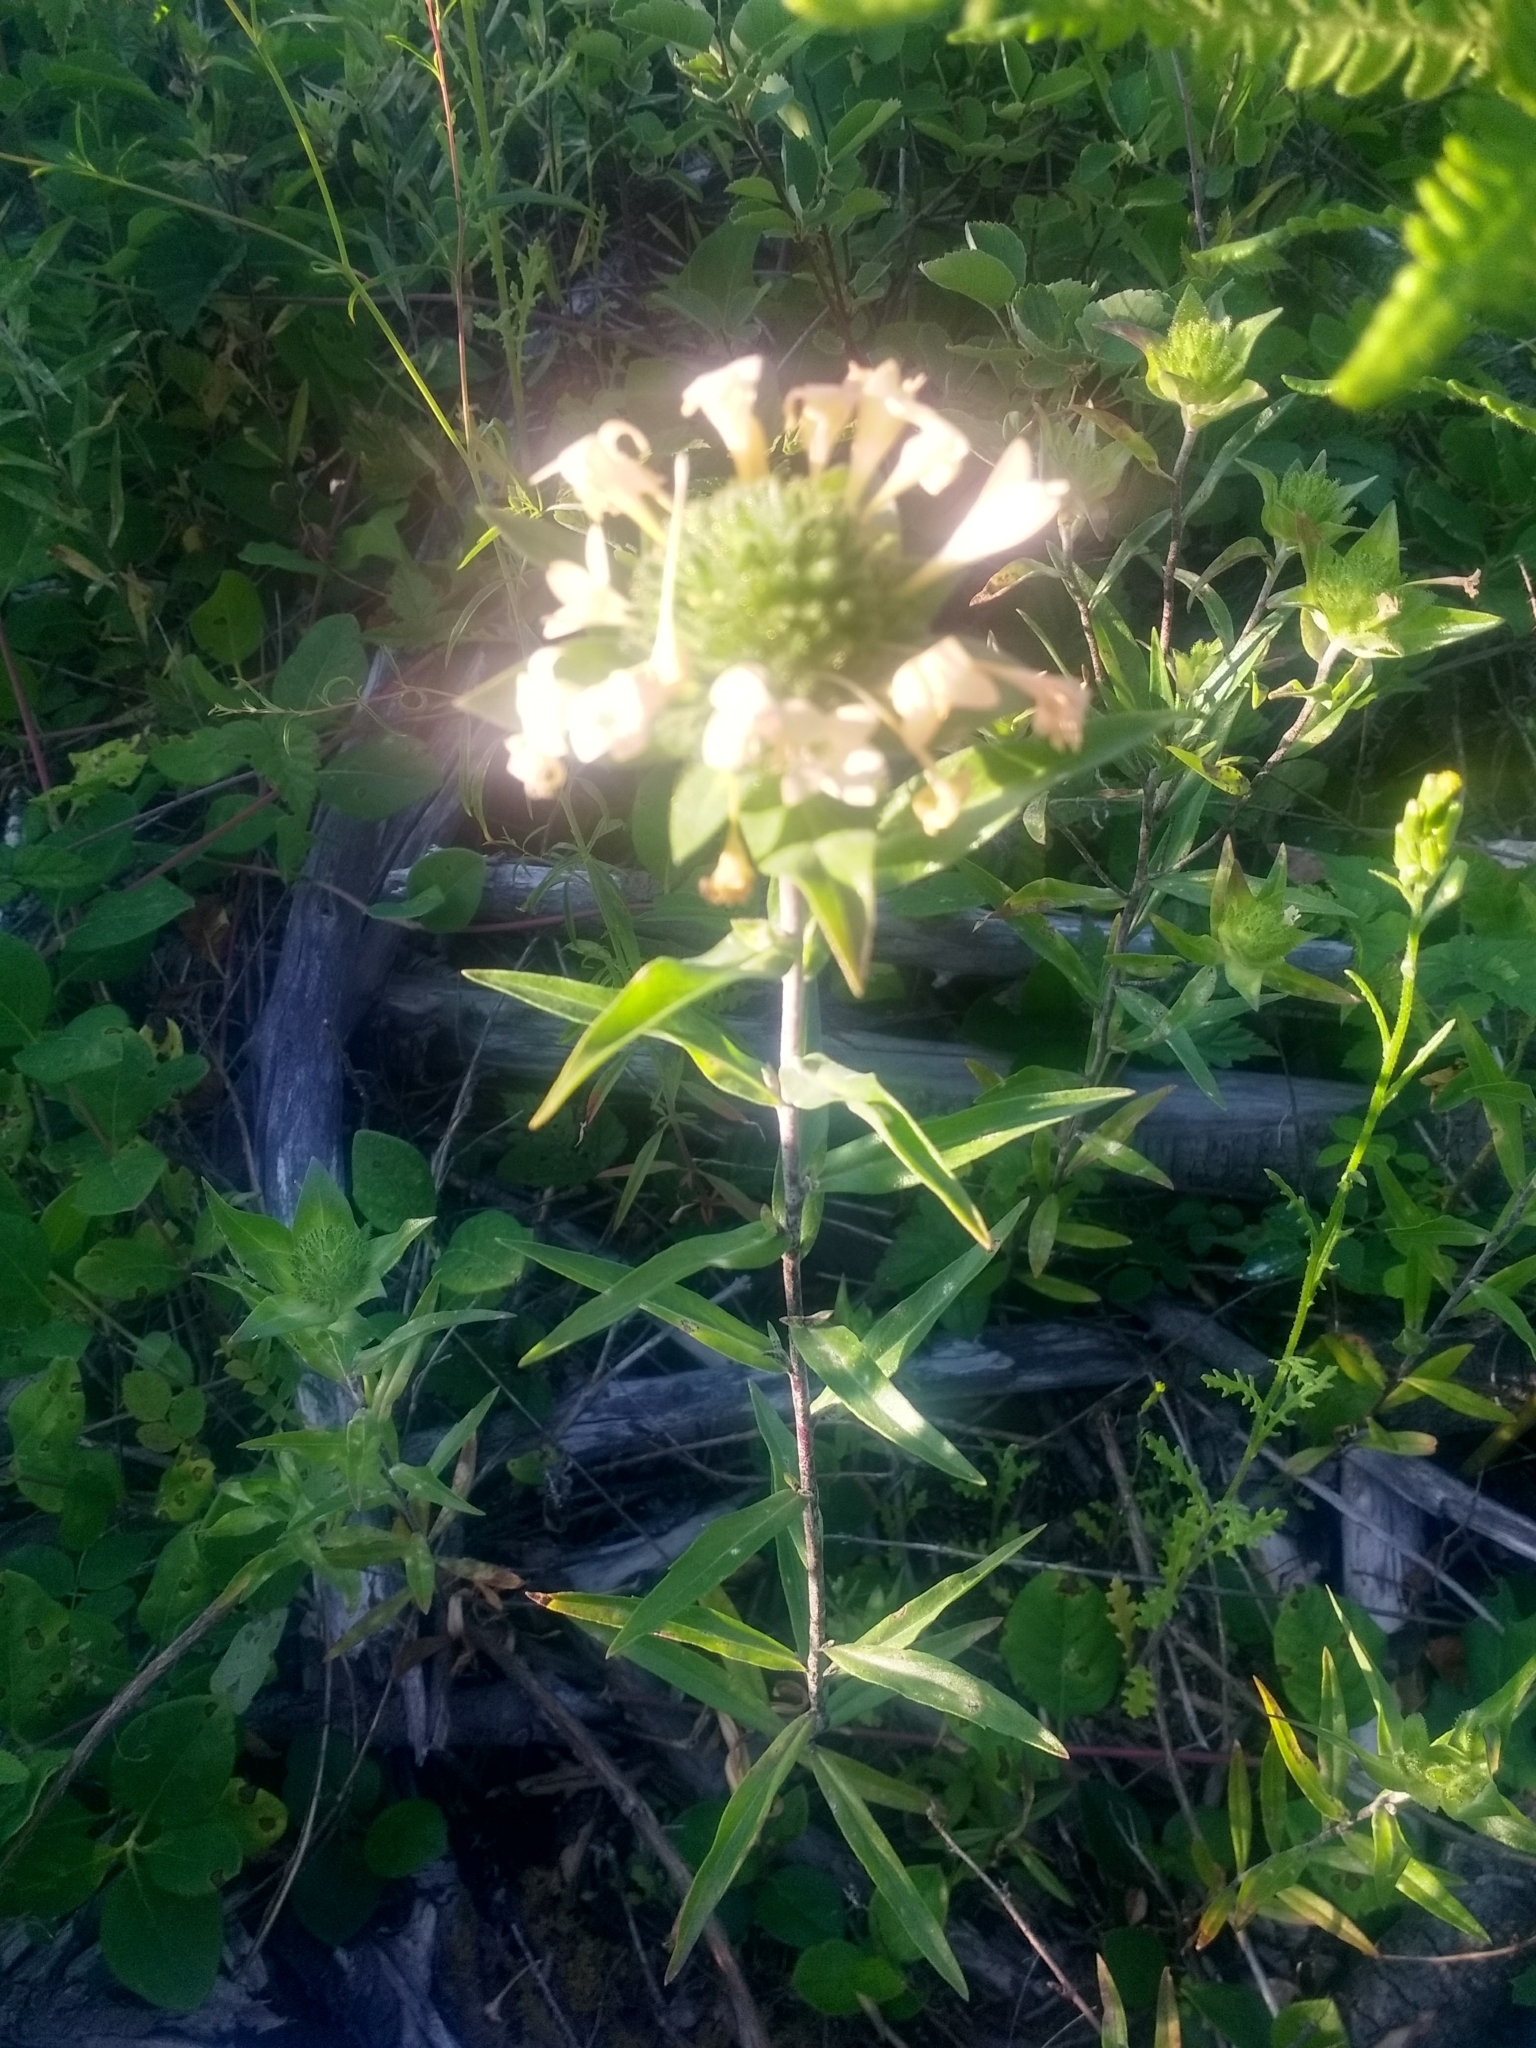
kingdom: Plantae
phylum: Tracheophyta
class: Magnoliopsida
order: Ericales
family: Polemoniaceae
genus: Collomia
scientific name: Collomia grandiflora
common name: California strawflower
